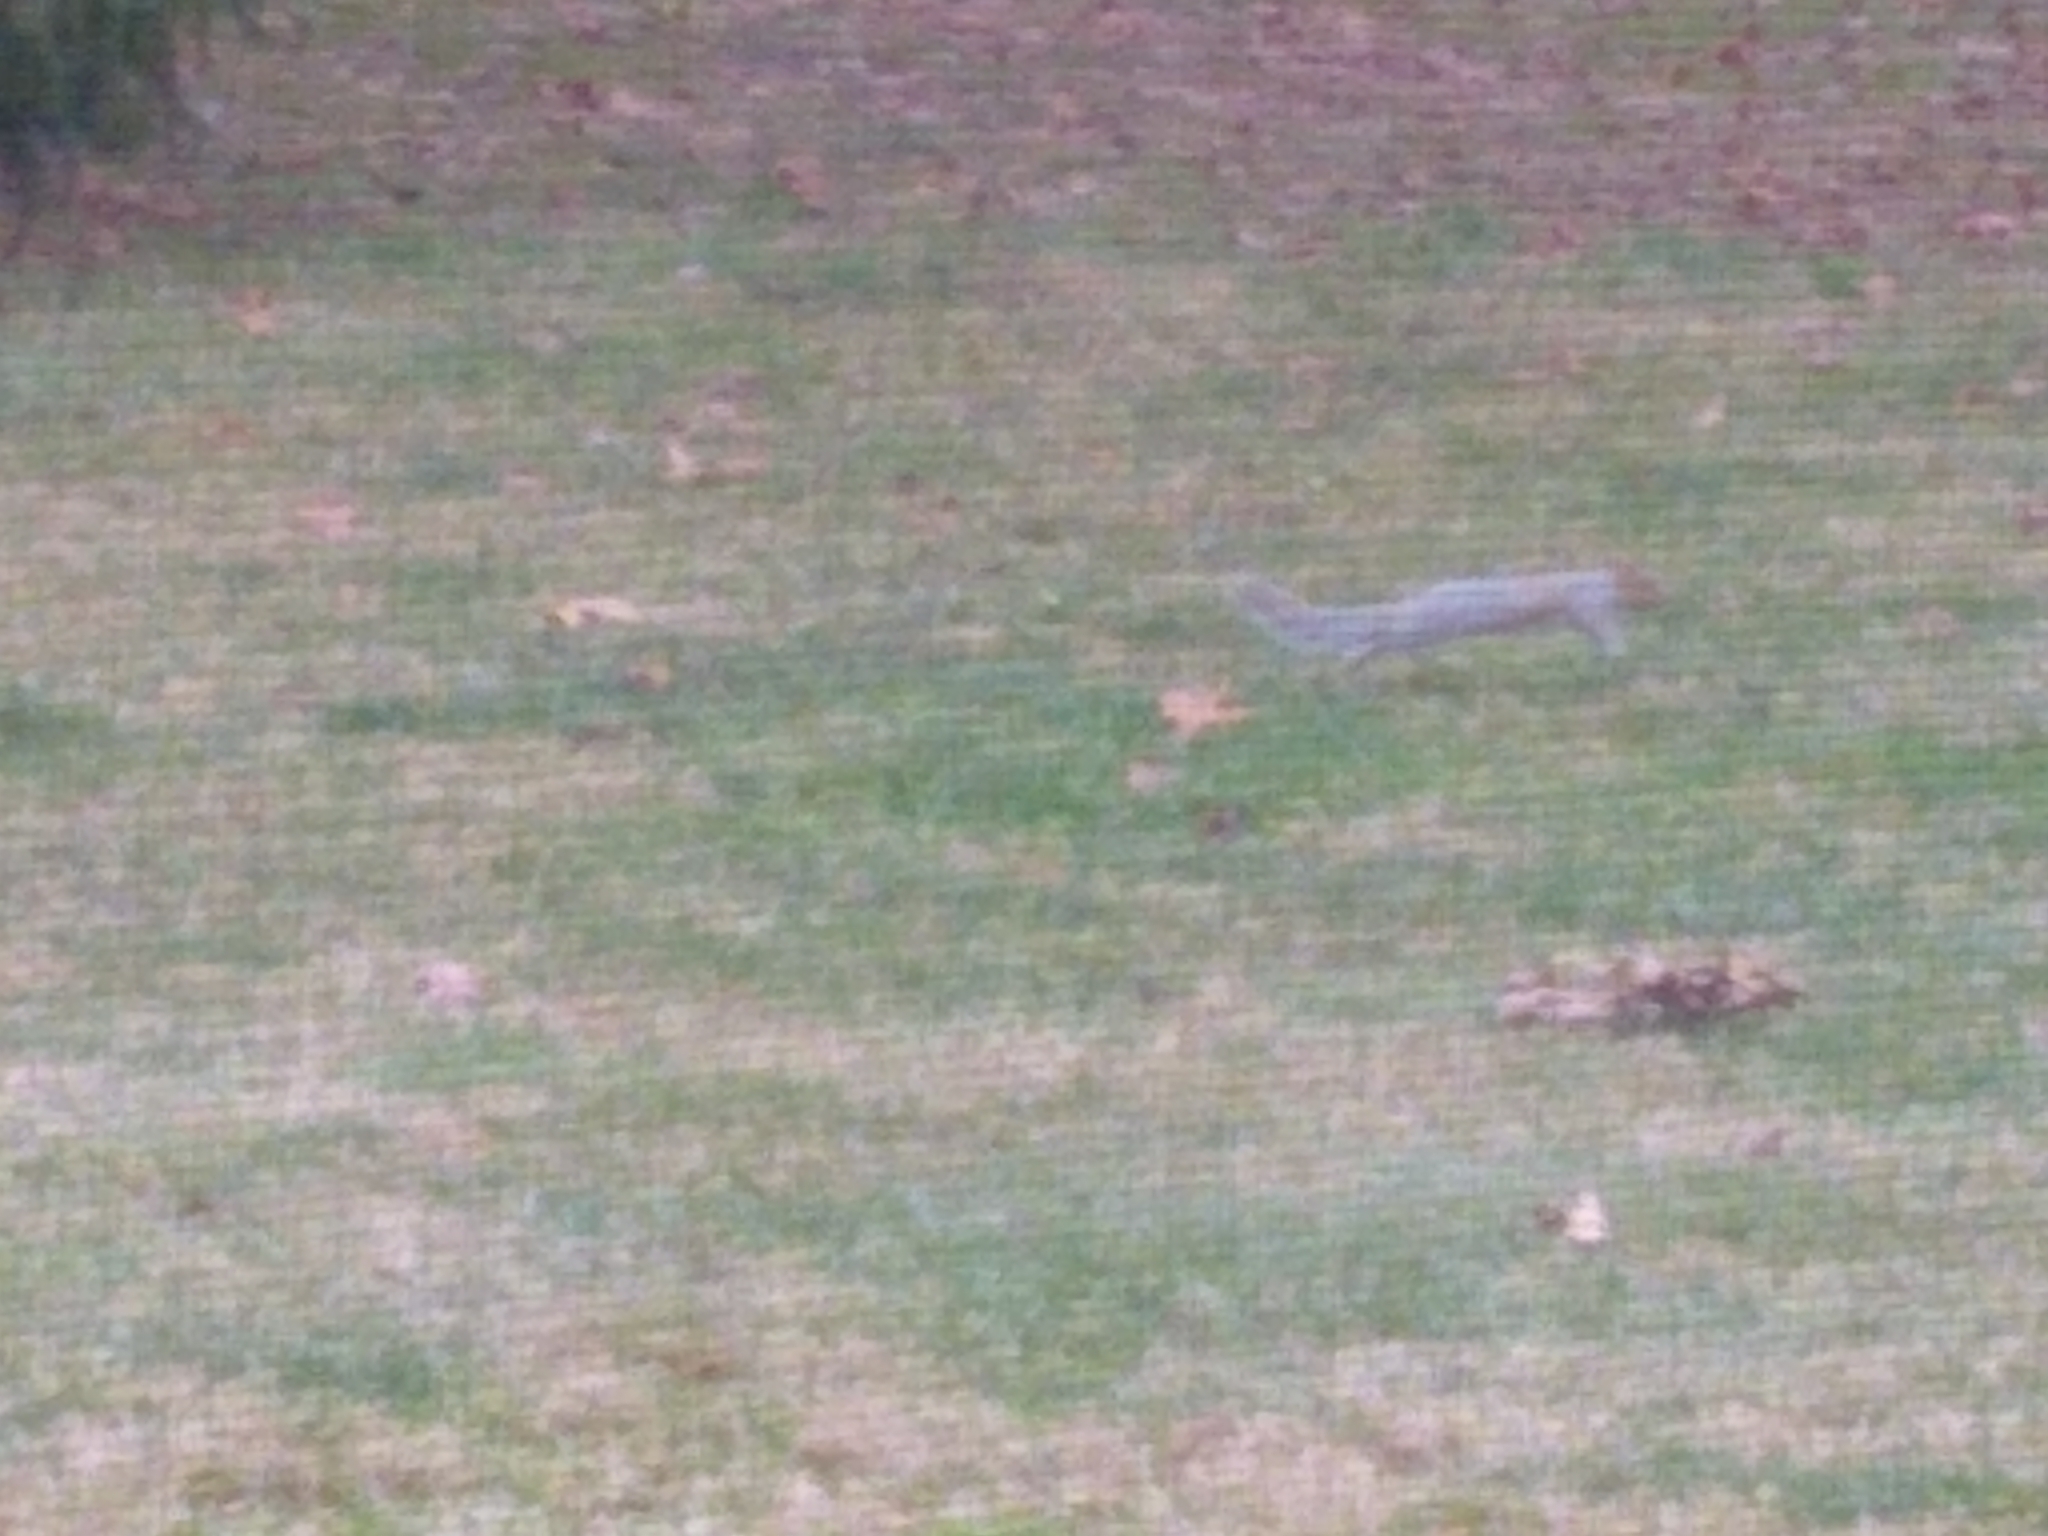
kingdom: Animalia
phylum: Chordata
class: Mammalia
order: Rodentia
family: Sciuridae
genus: Sciurus
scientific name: Sciurus carolinensis
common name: Eastern gray squirrel
